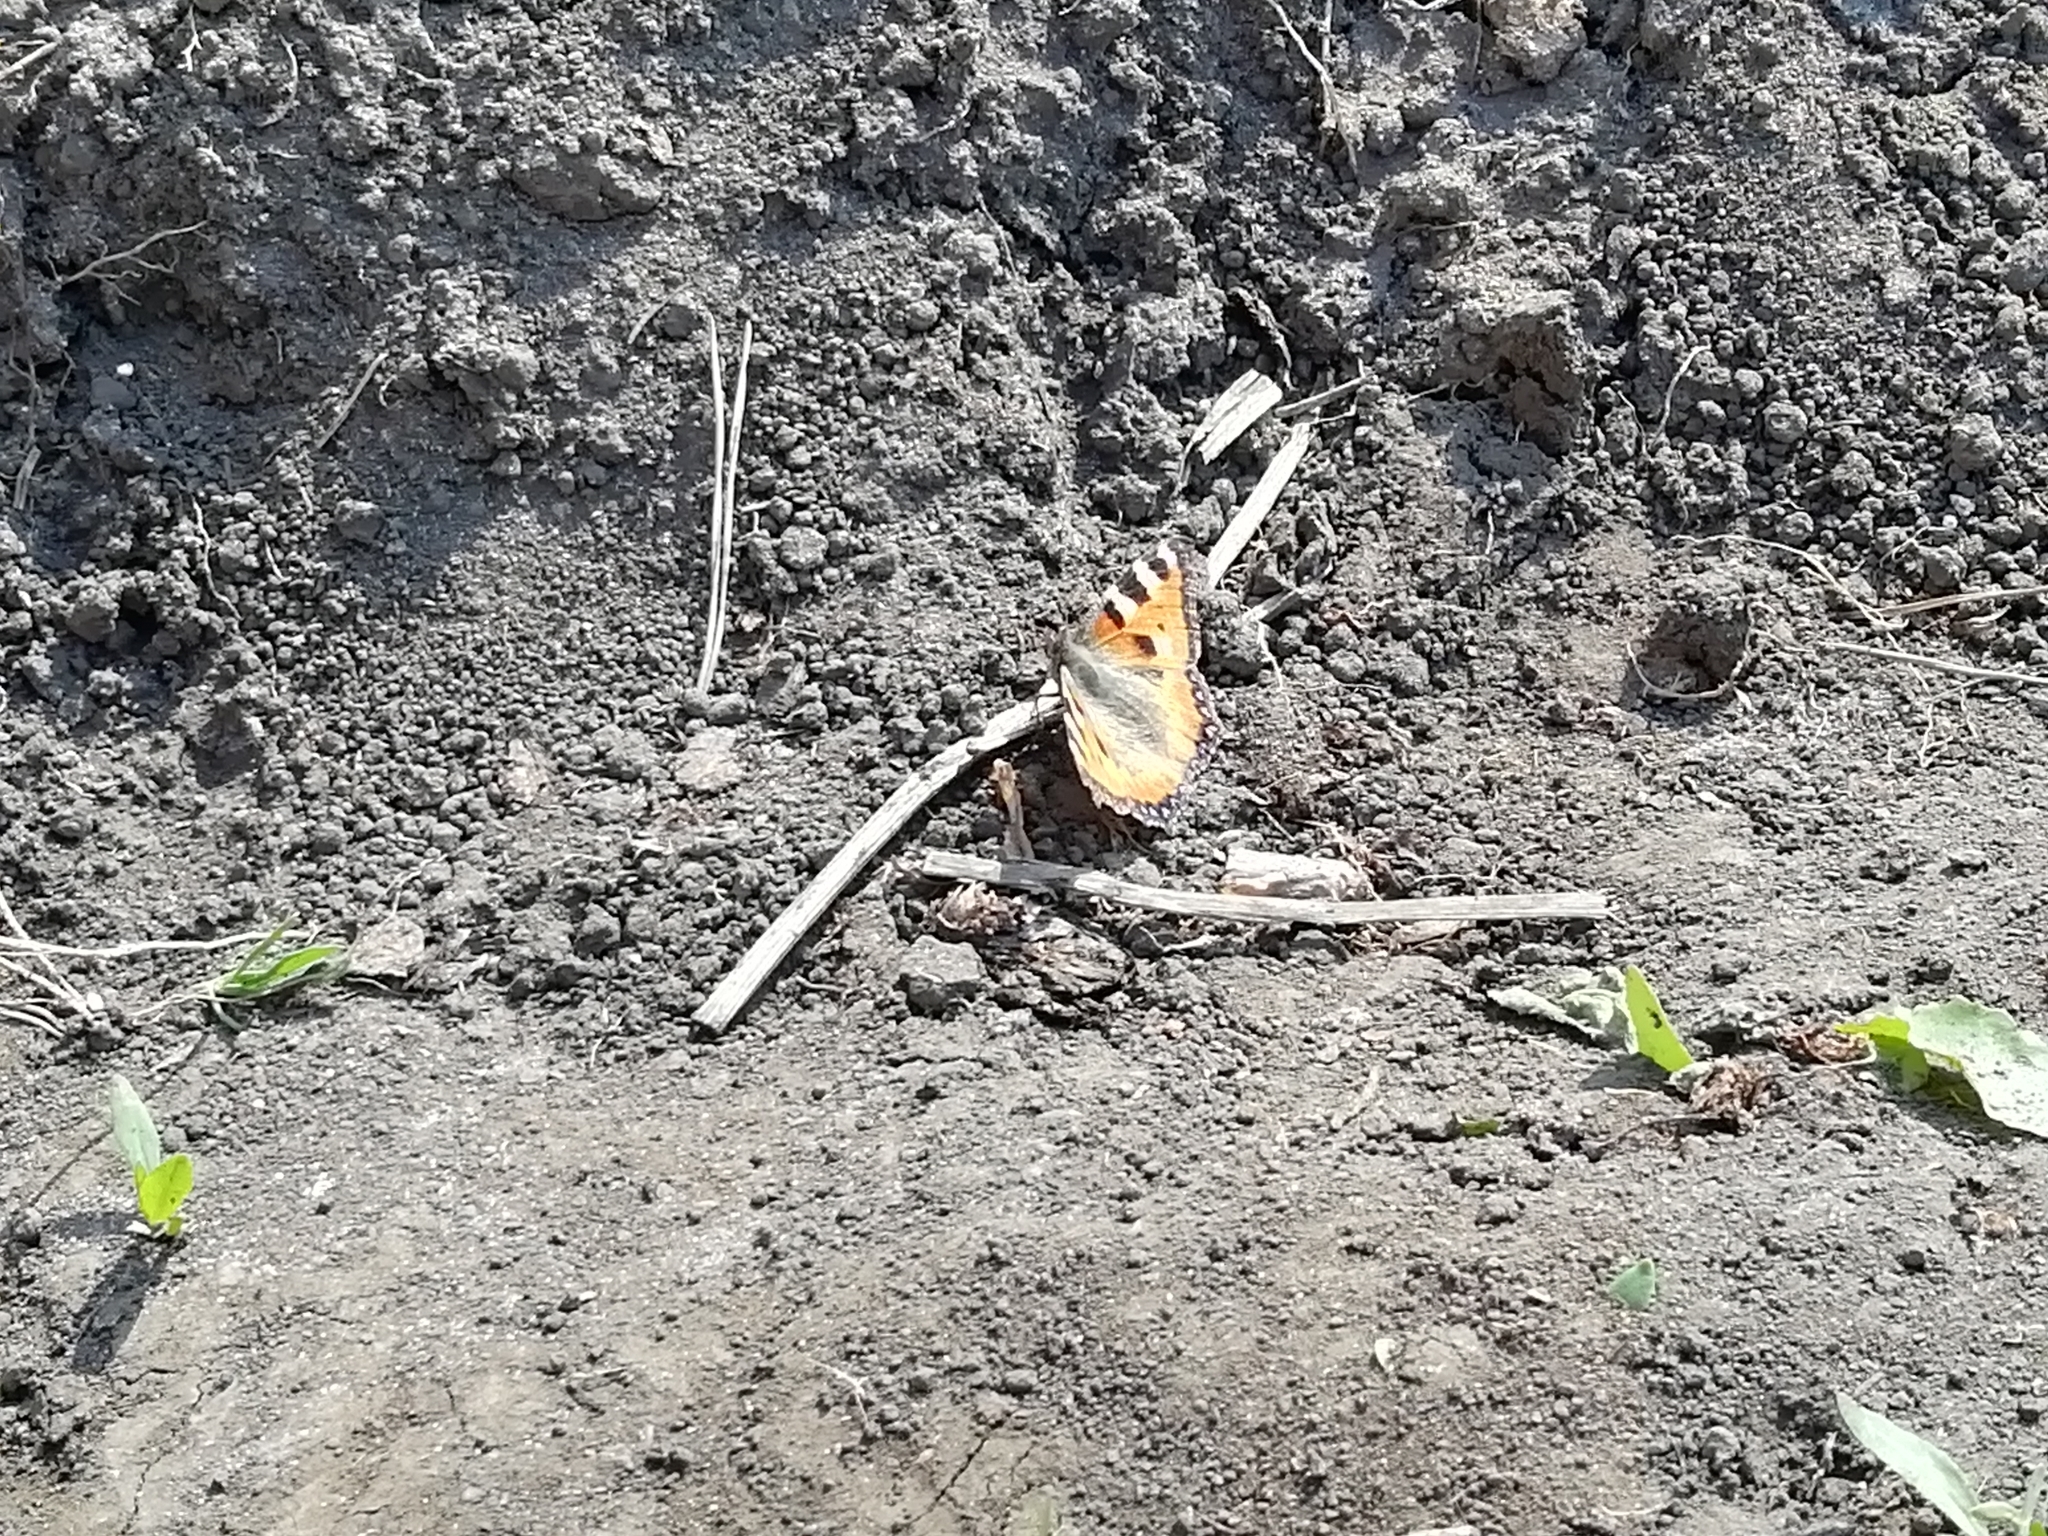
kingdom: Animalia
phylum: Arthropoda
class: Insecta
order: Lepidoptera
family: Nymphalidae
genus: Aglais
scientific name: Aglais urticae
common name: Small tortoiseshell
